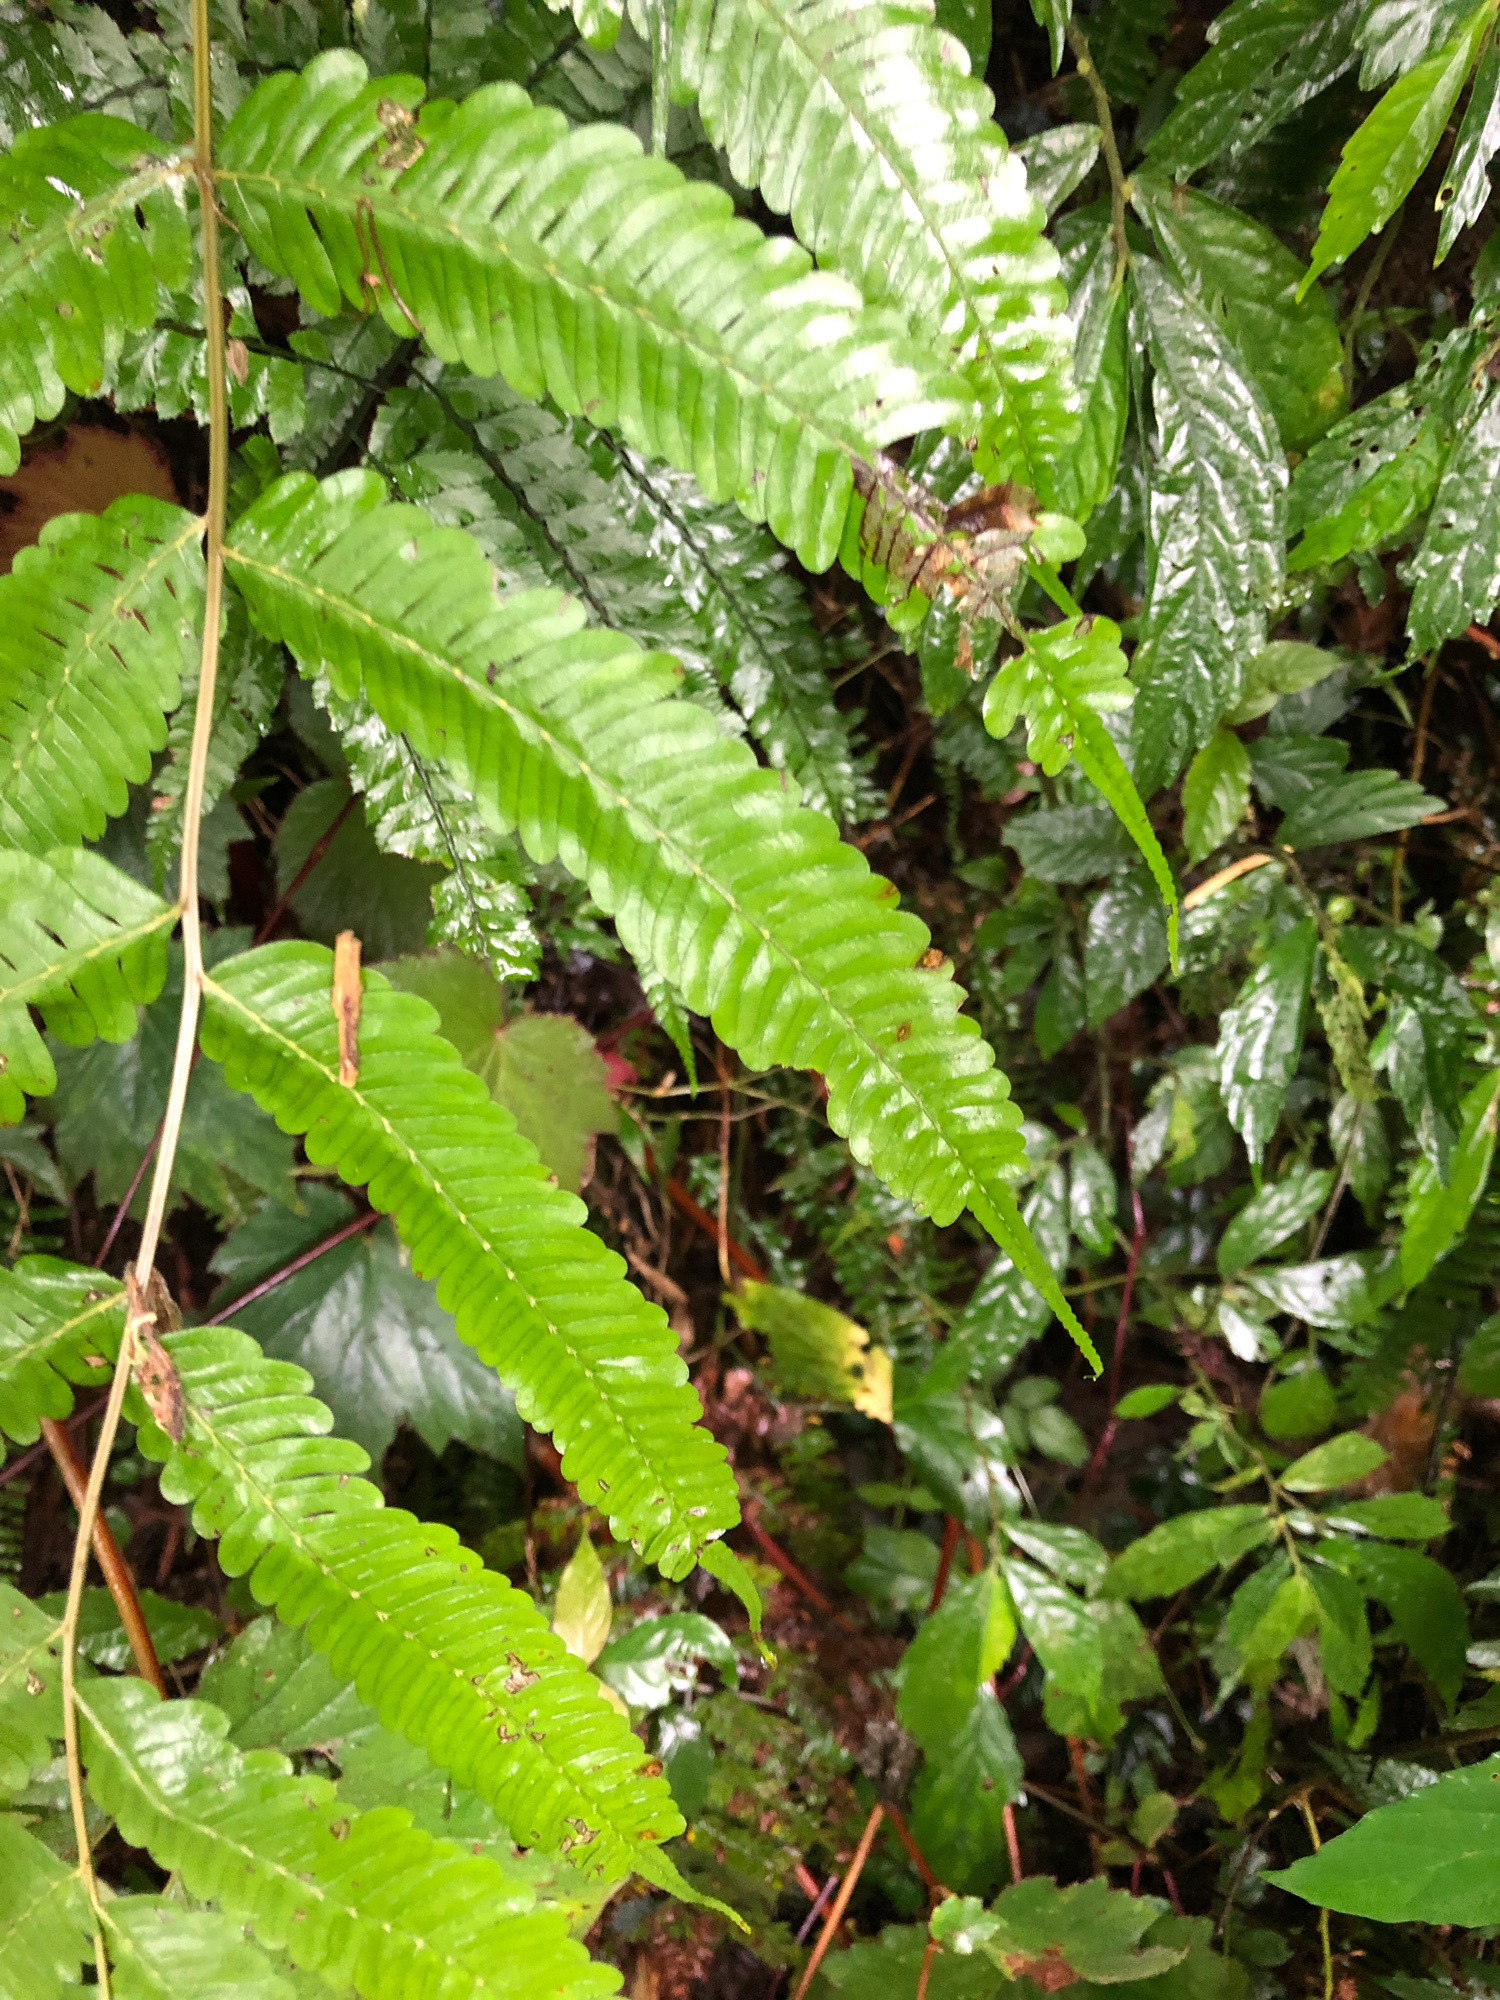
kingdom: Plantae
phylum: Tracheophyta
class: Polypodiopsida
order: Polypodiales
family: Pteridaceae
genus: Pteris
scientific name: Pteris setulosocostulata
